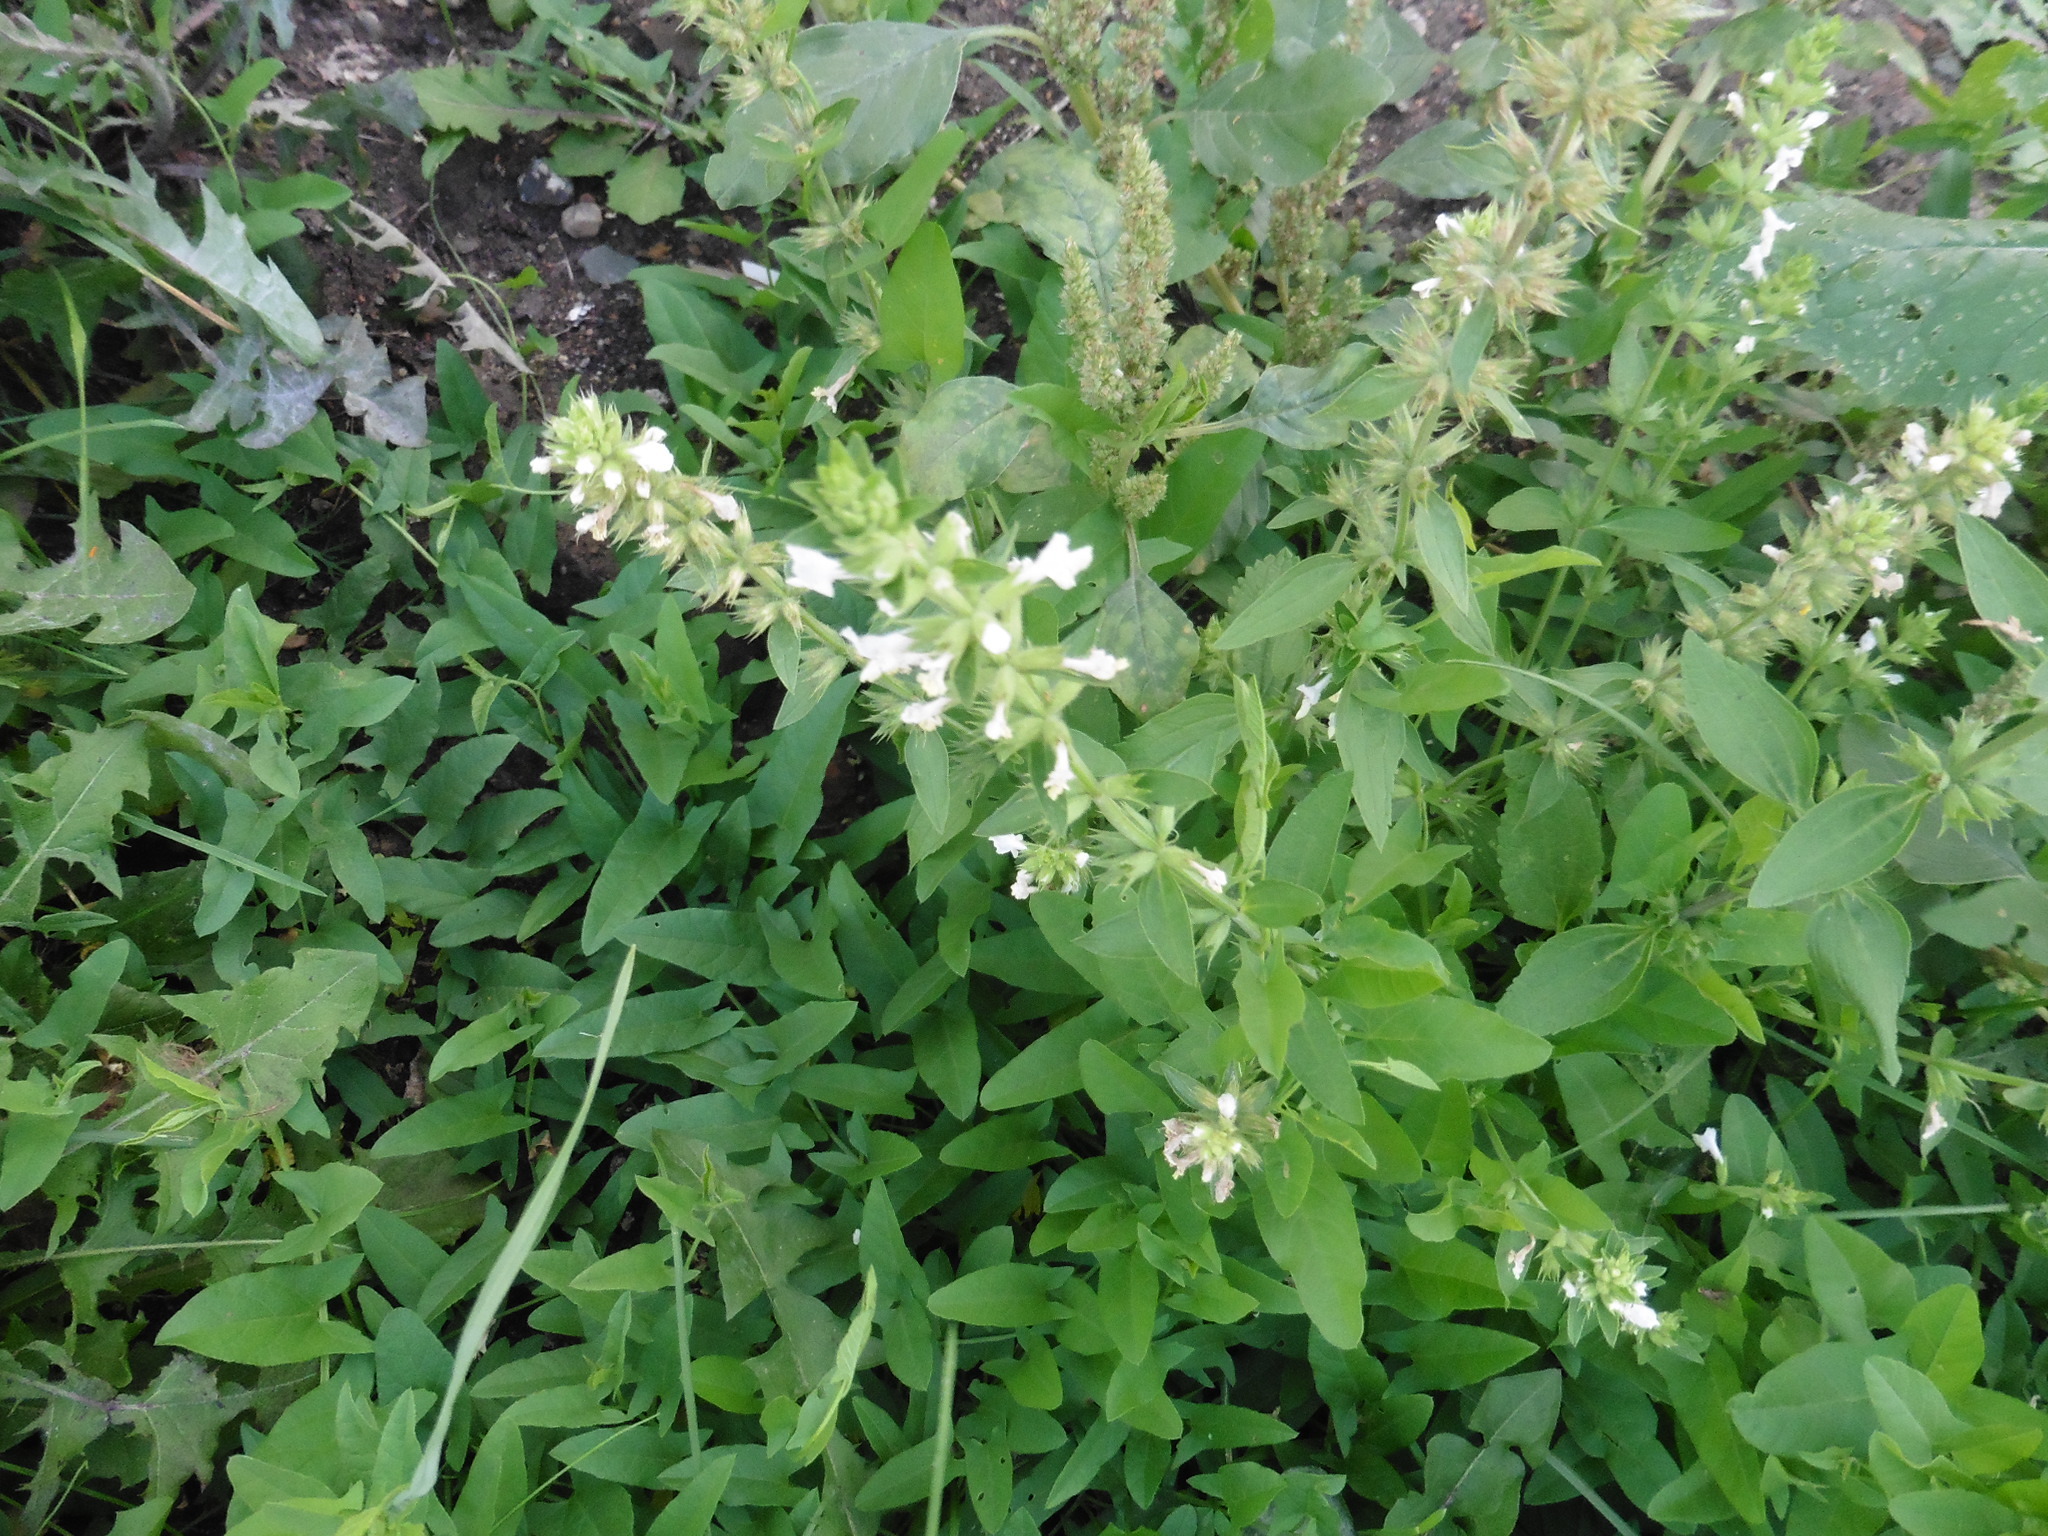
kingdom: Plantae
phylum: Tracheophyta
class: Magnoliopsida
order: Lamiales
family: Lamiaceae
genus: Stachys
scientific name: Stachys annua
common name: Annual yellow-woundwort
